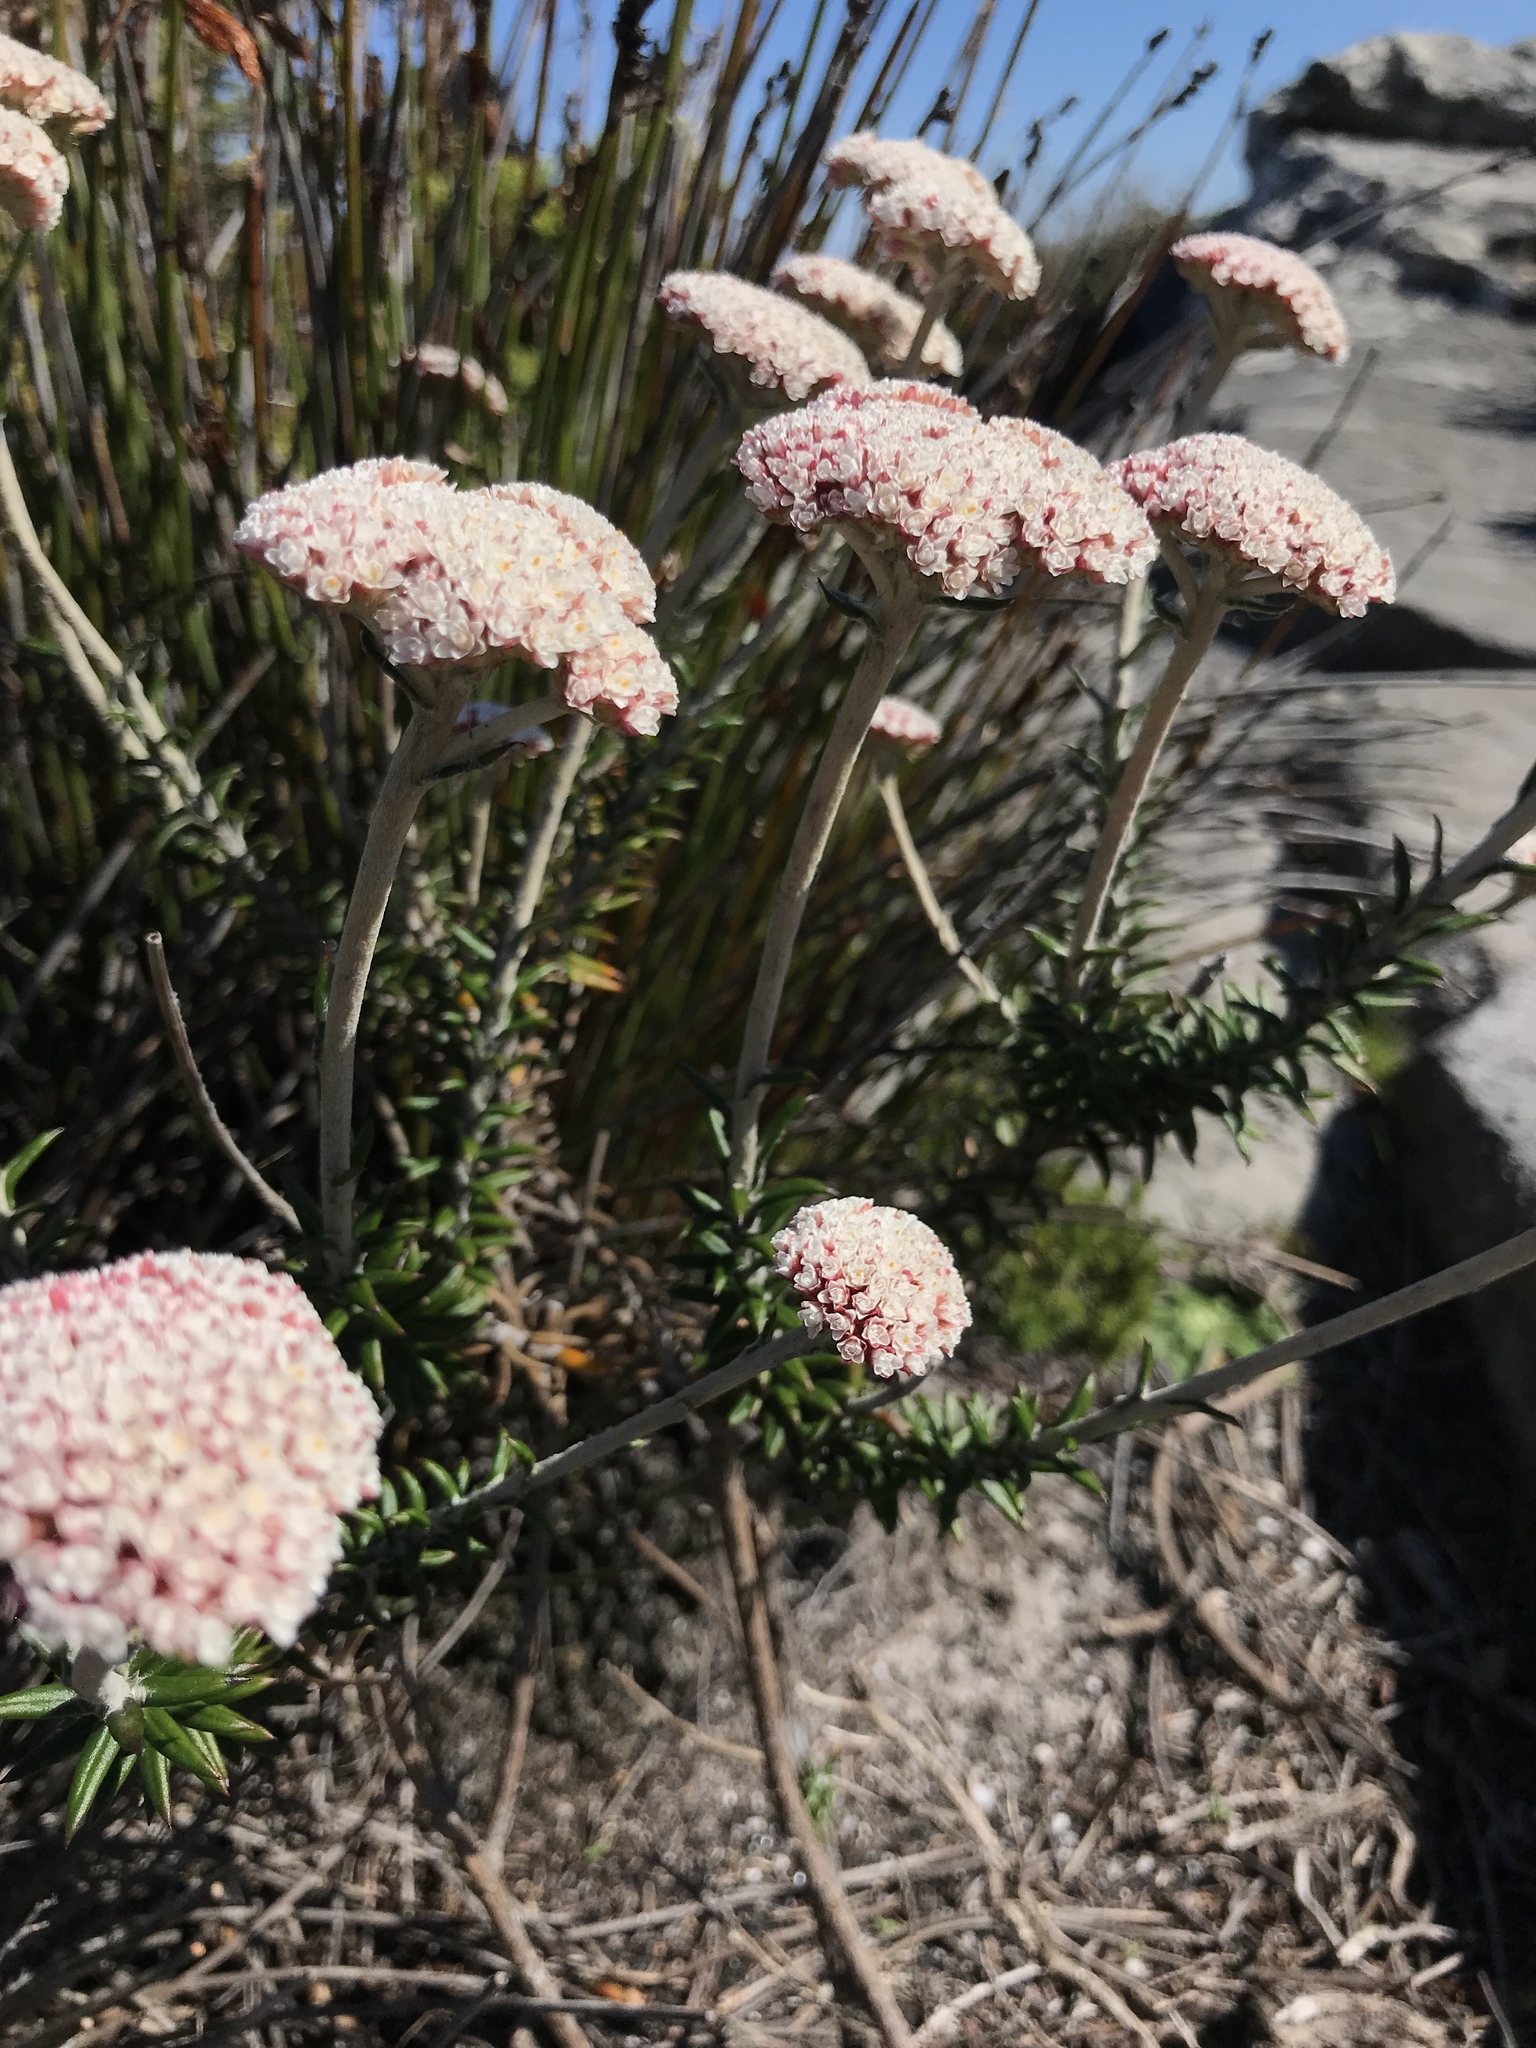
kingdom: Plantae
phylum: Tracheophyta
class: Magnoliopsida
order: Asterales
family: Asteraceae
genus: Anaxeton
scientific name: Anaxeton arborescens
